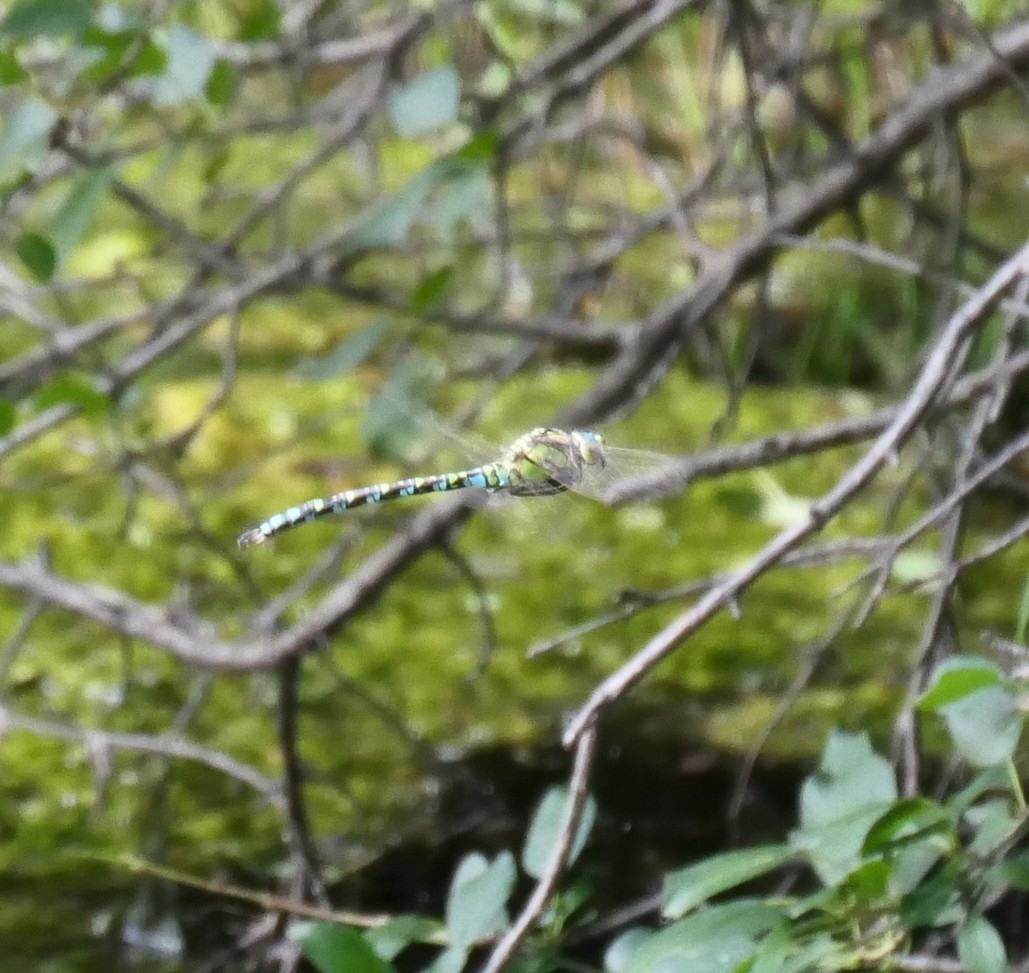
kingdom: Animalia
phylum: Arthropoda
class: Insecta
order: Odonata
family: Aeshnidae
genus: Aeshna
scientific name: Aeshna cyanea
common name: Southern hawker
